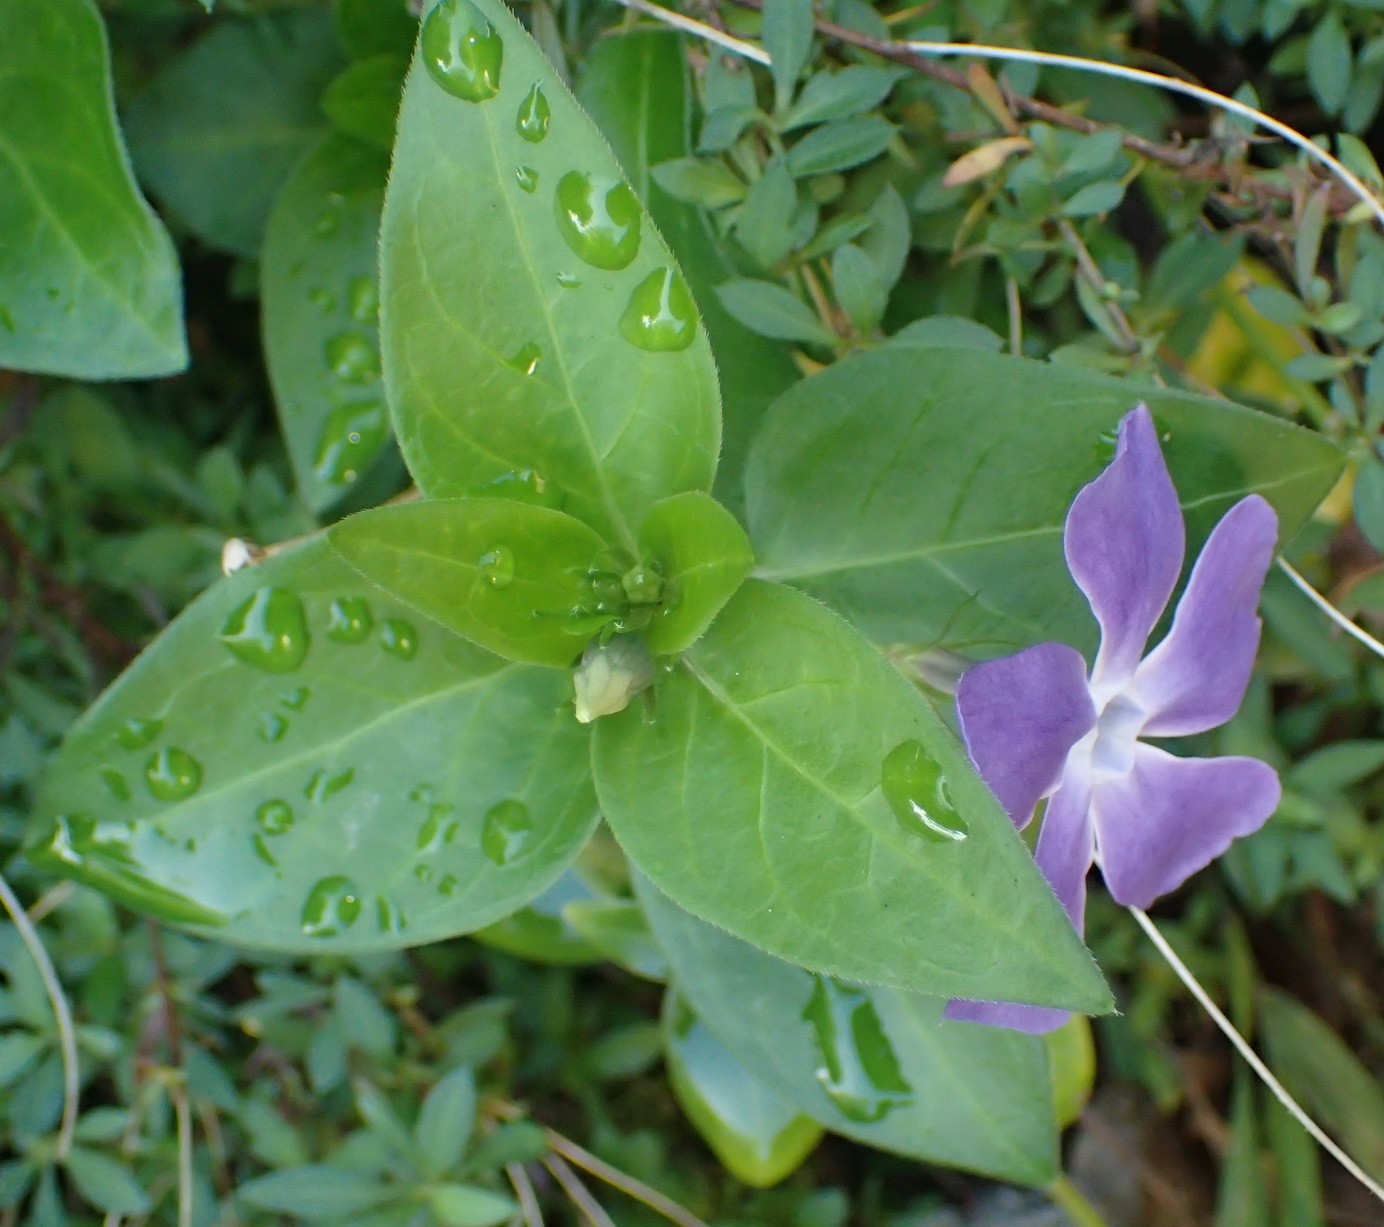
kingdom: Plantae
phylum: Tracheophyta
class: Magnoliopsida
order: Gentianales
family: Apocynaceae
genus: Vinca
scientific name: Vinca major
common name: Greater periwinkle
